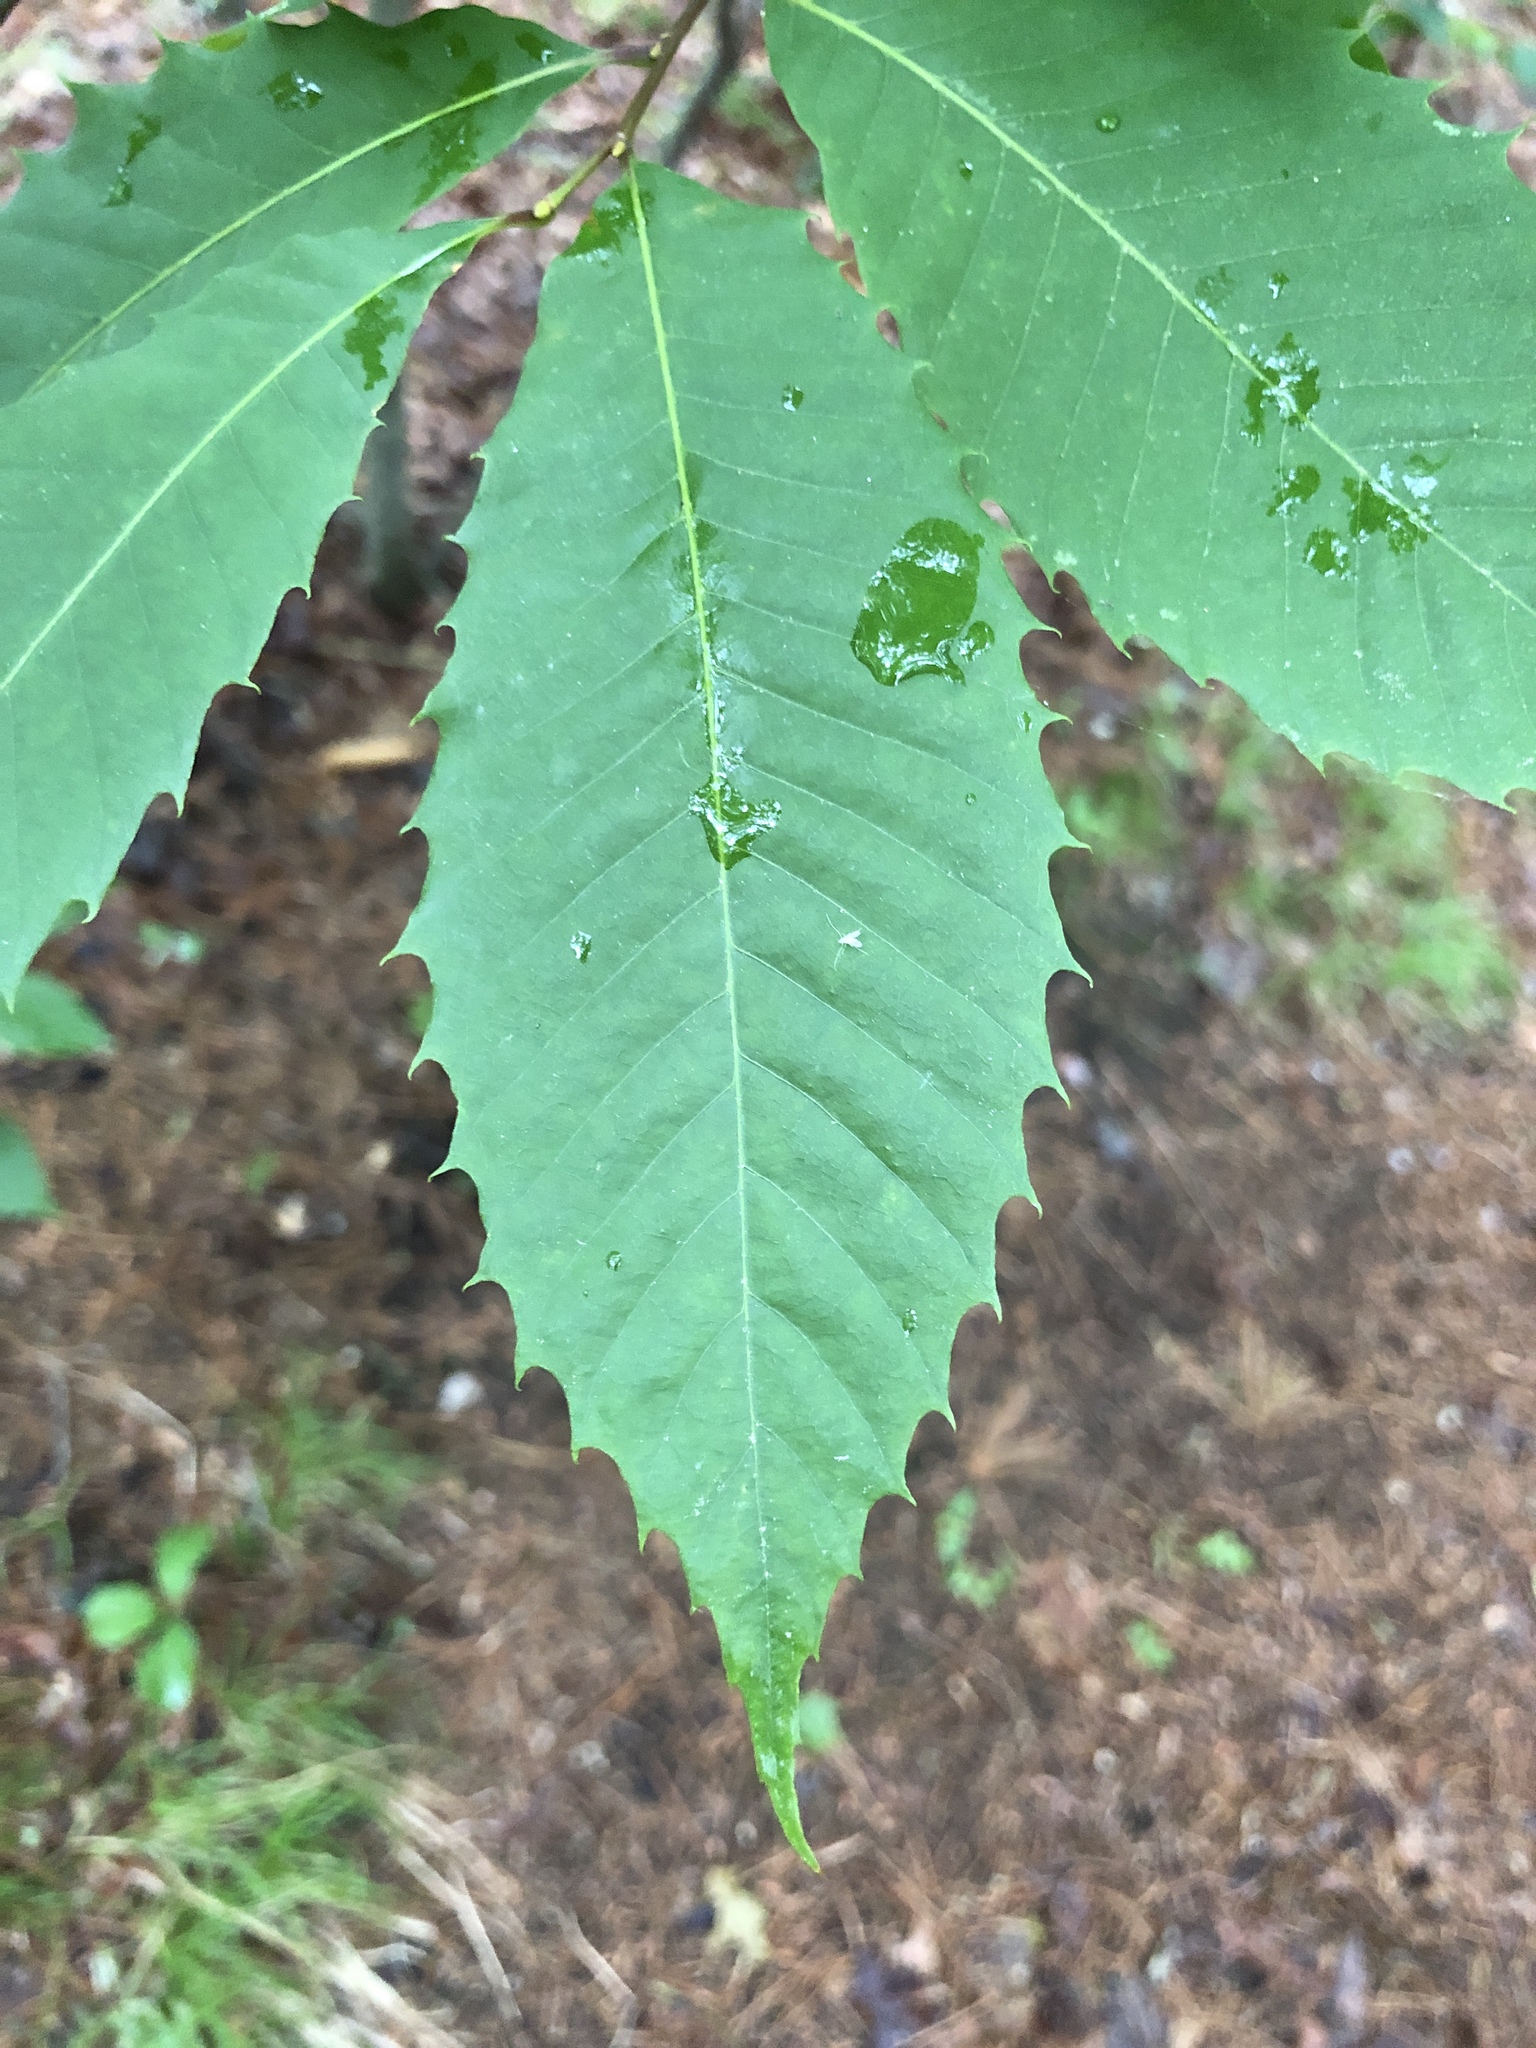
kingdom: Plantae
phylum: Tracheophyta
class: Magnoliopsida
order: Fagales
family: Fagaceae
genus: Castanea
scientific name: Castanea dentata
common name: American chestnut
